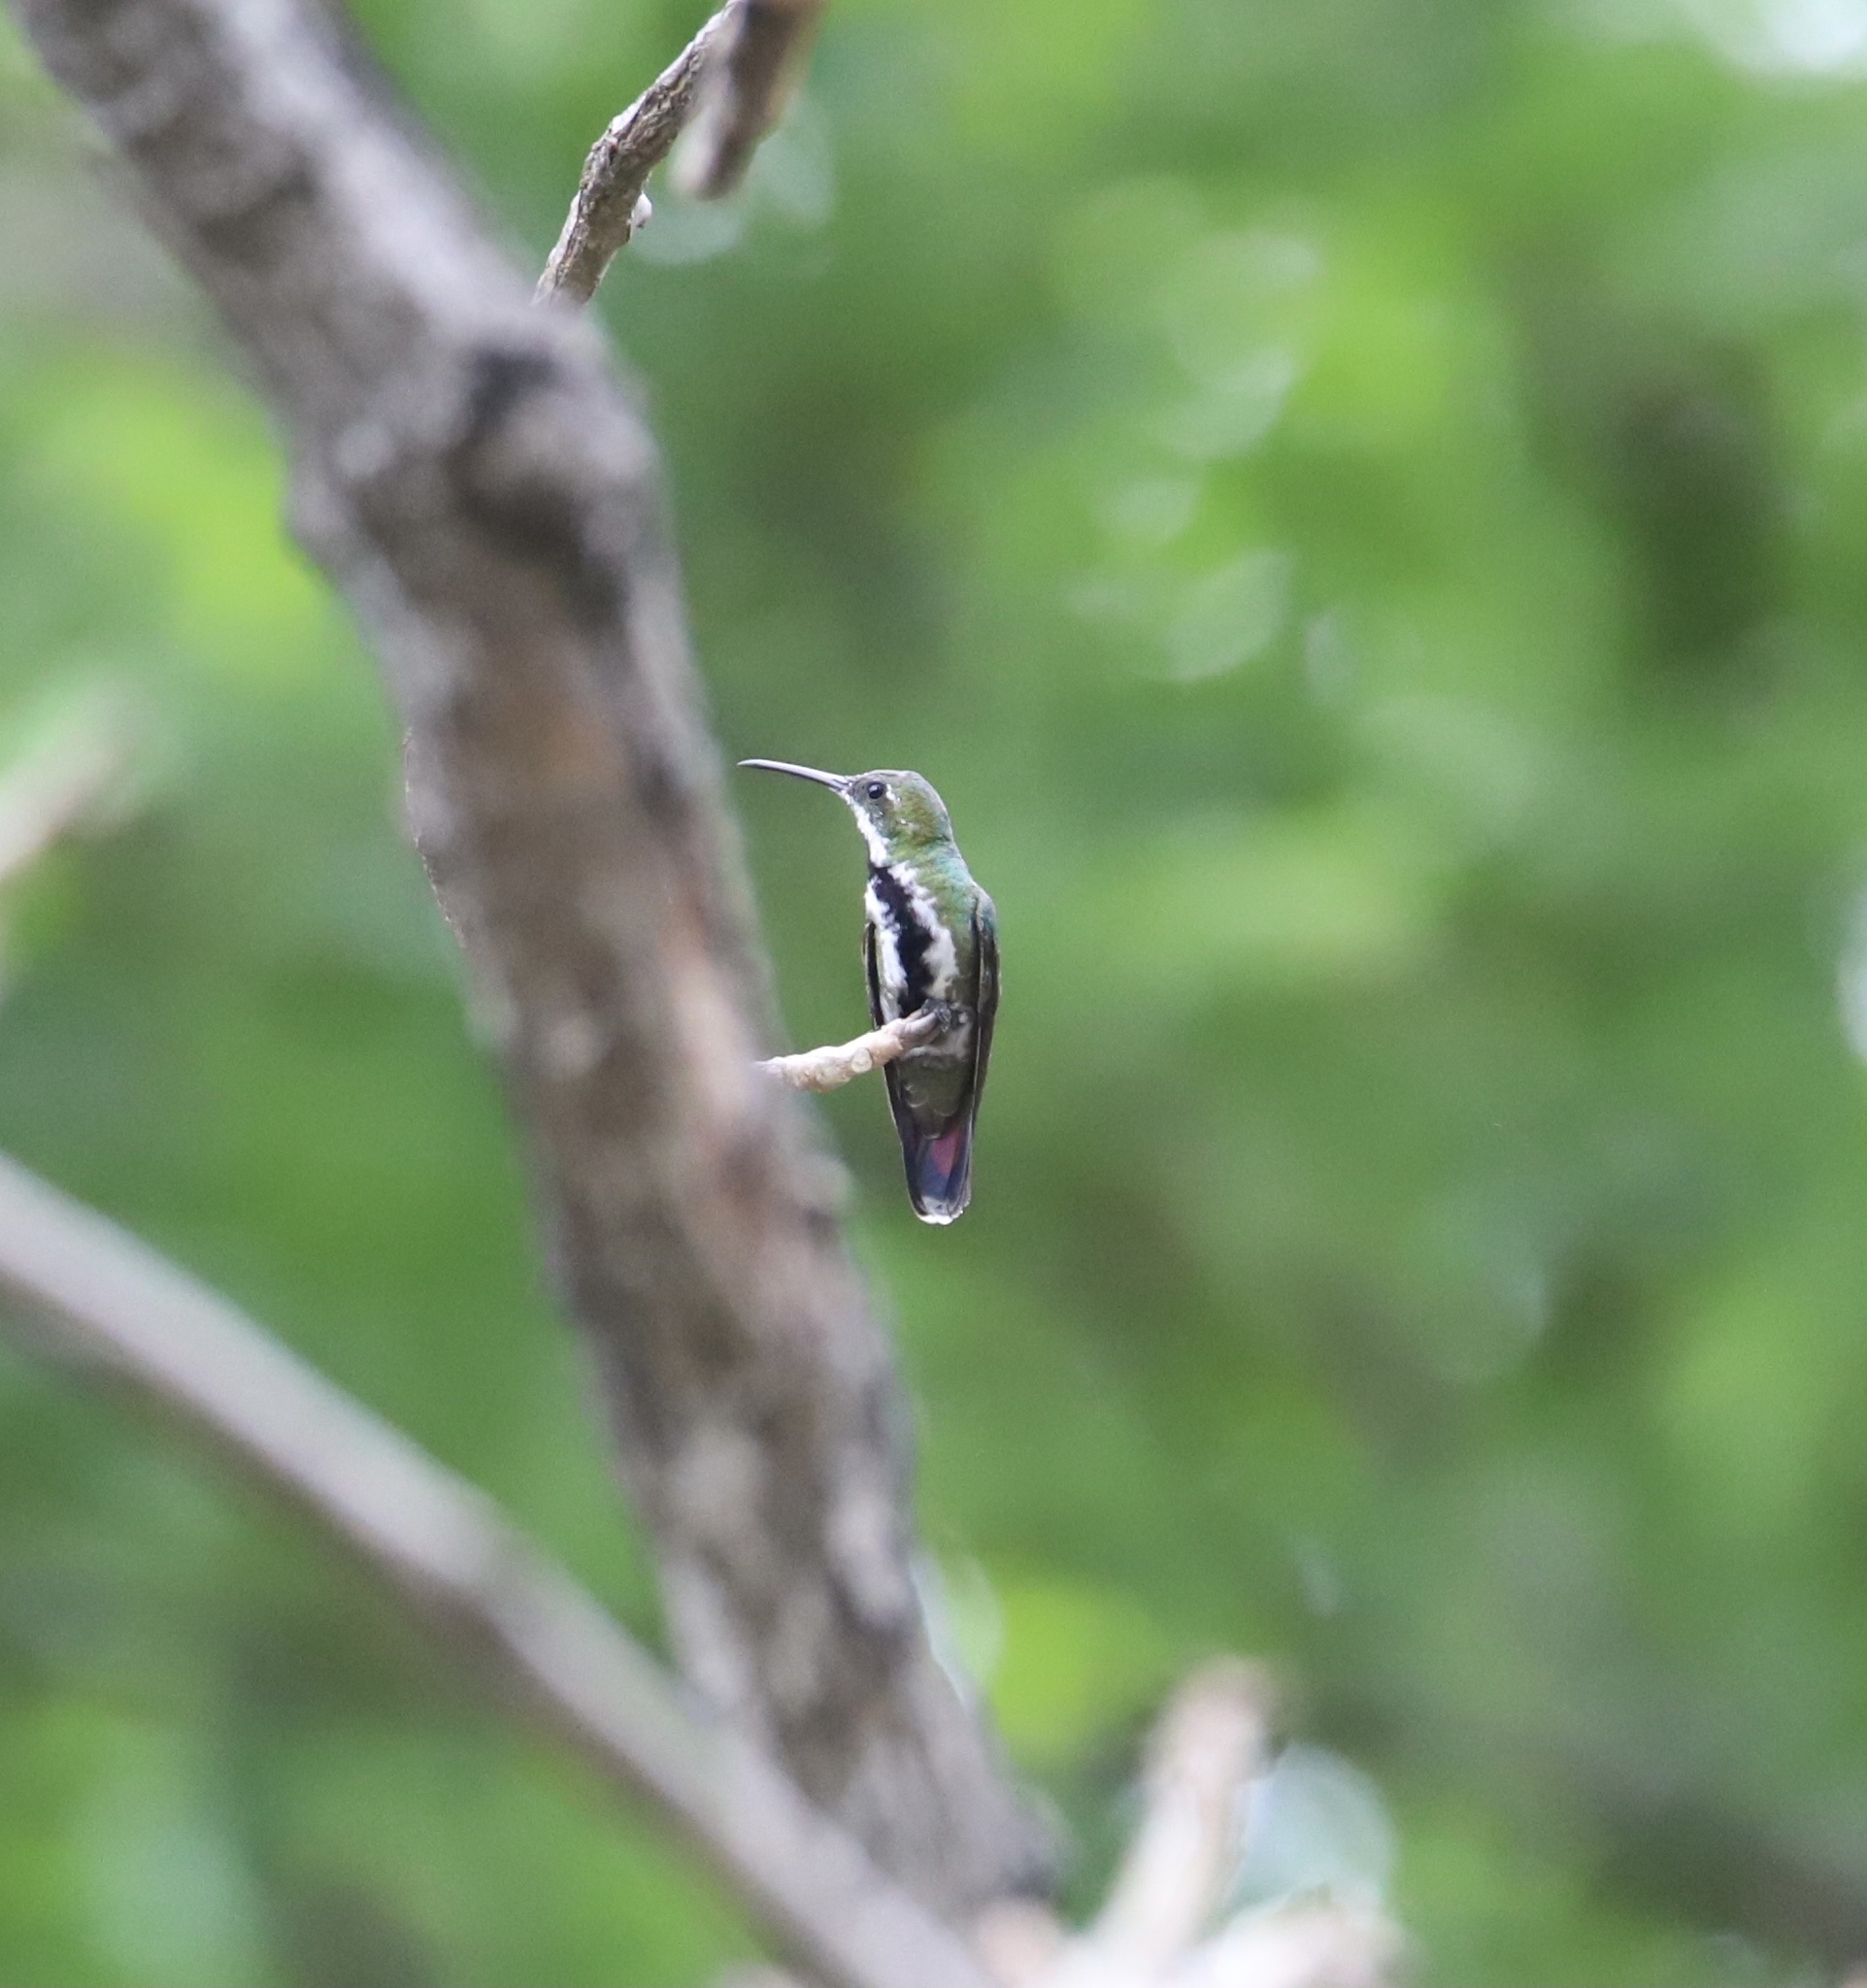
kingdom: Animalia
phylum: Chordata
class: Aves
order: Apodiformes
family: Trochilidae
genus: Anthracothorax
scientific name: Anthracothorax nigricollis
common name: Black-throated mango
